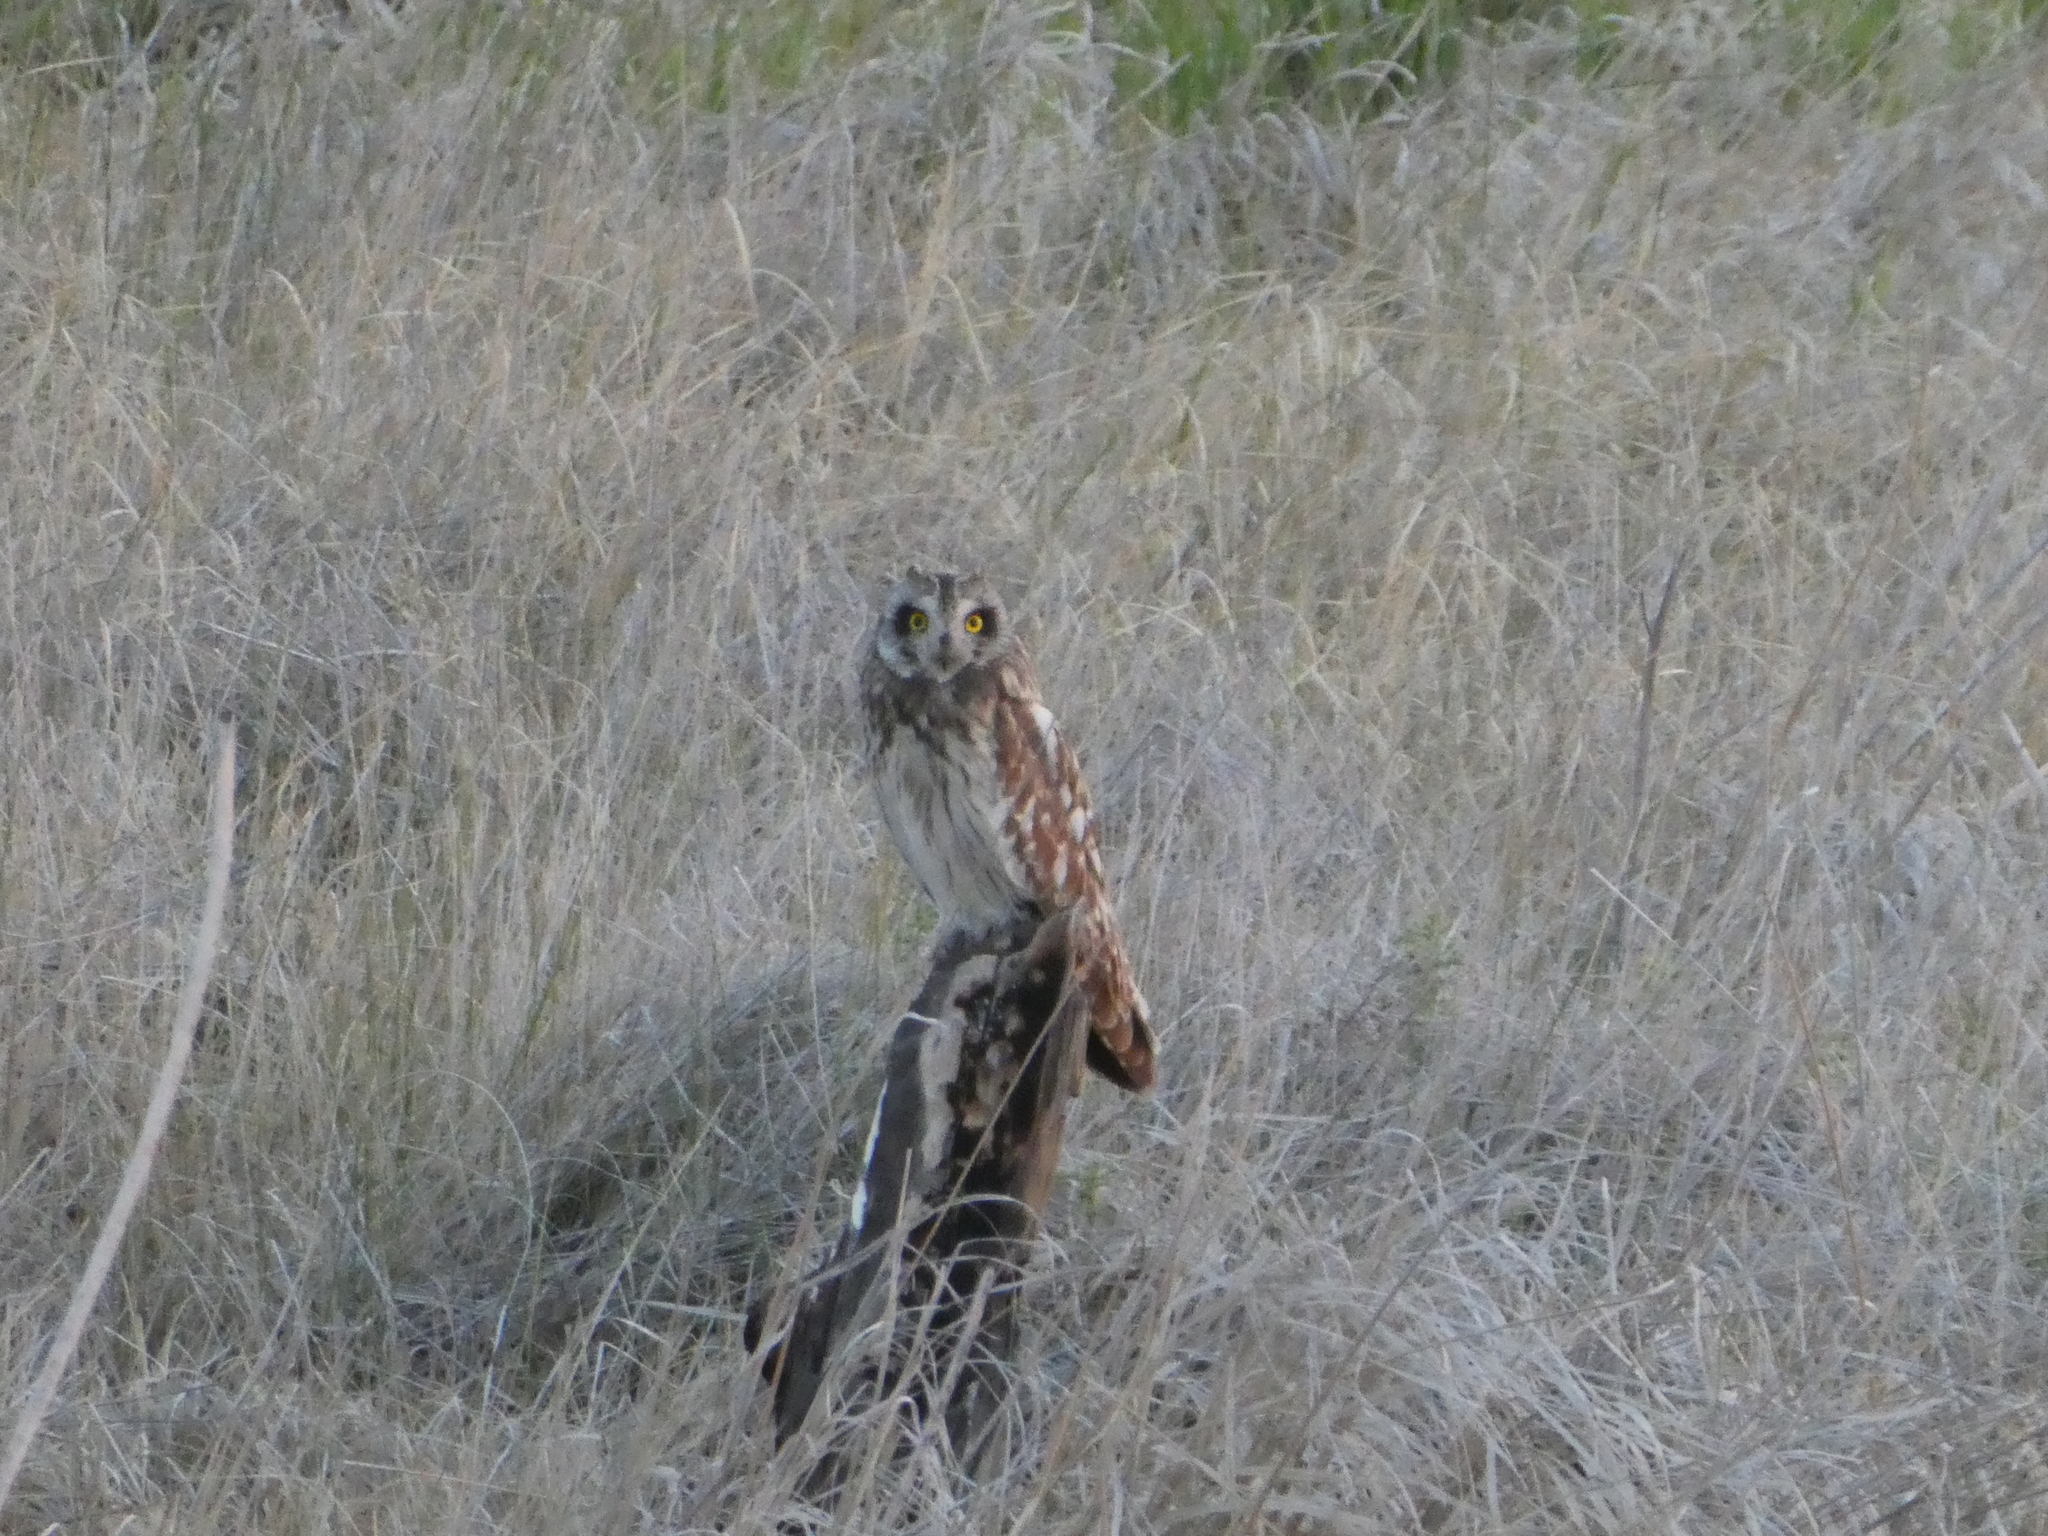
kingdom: Animalia
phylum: Chordata
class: Aves
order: Strigiformes
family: Strigidae
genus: Asio
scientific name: Asio flammeus
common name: Short-eared owl
